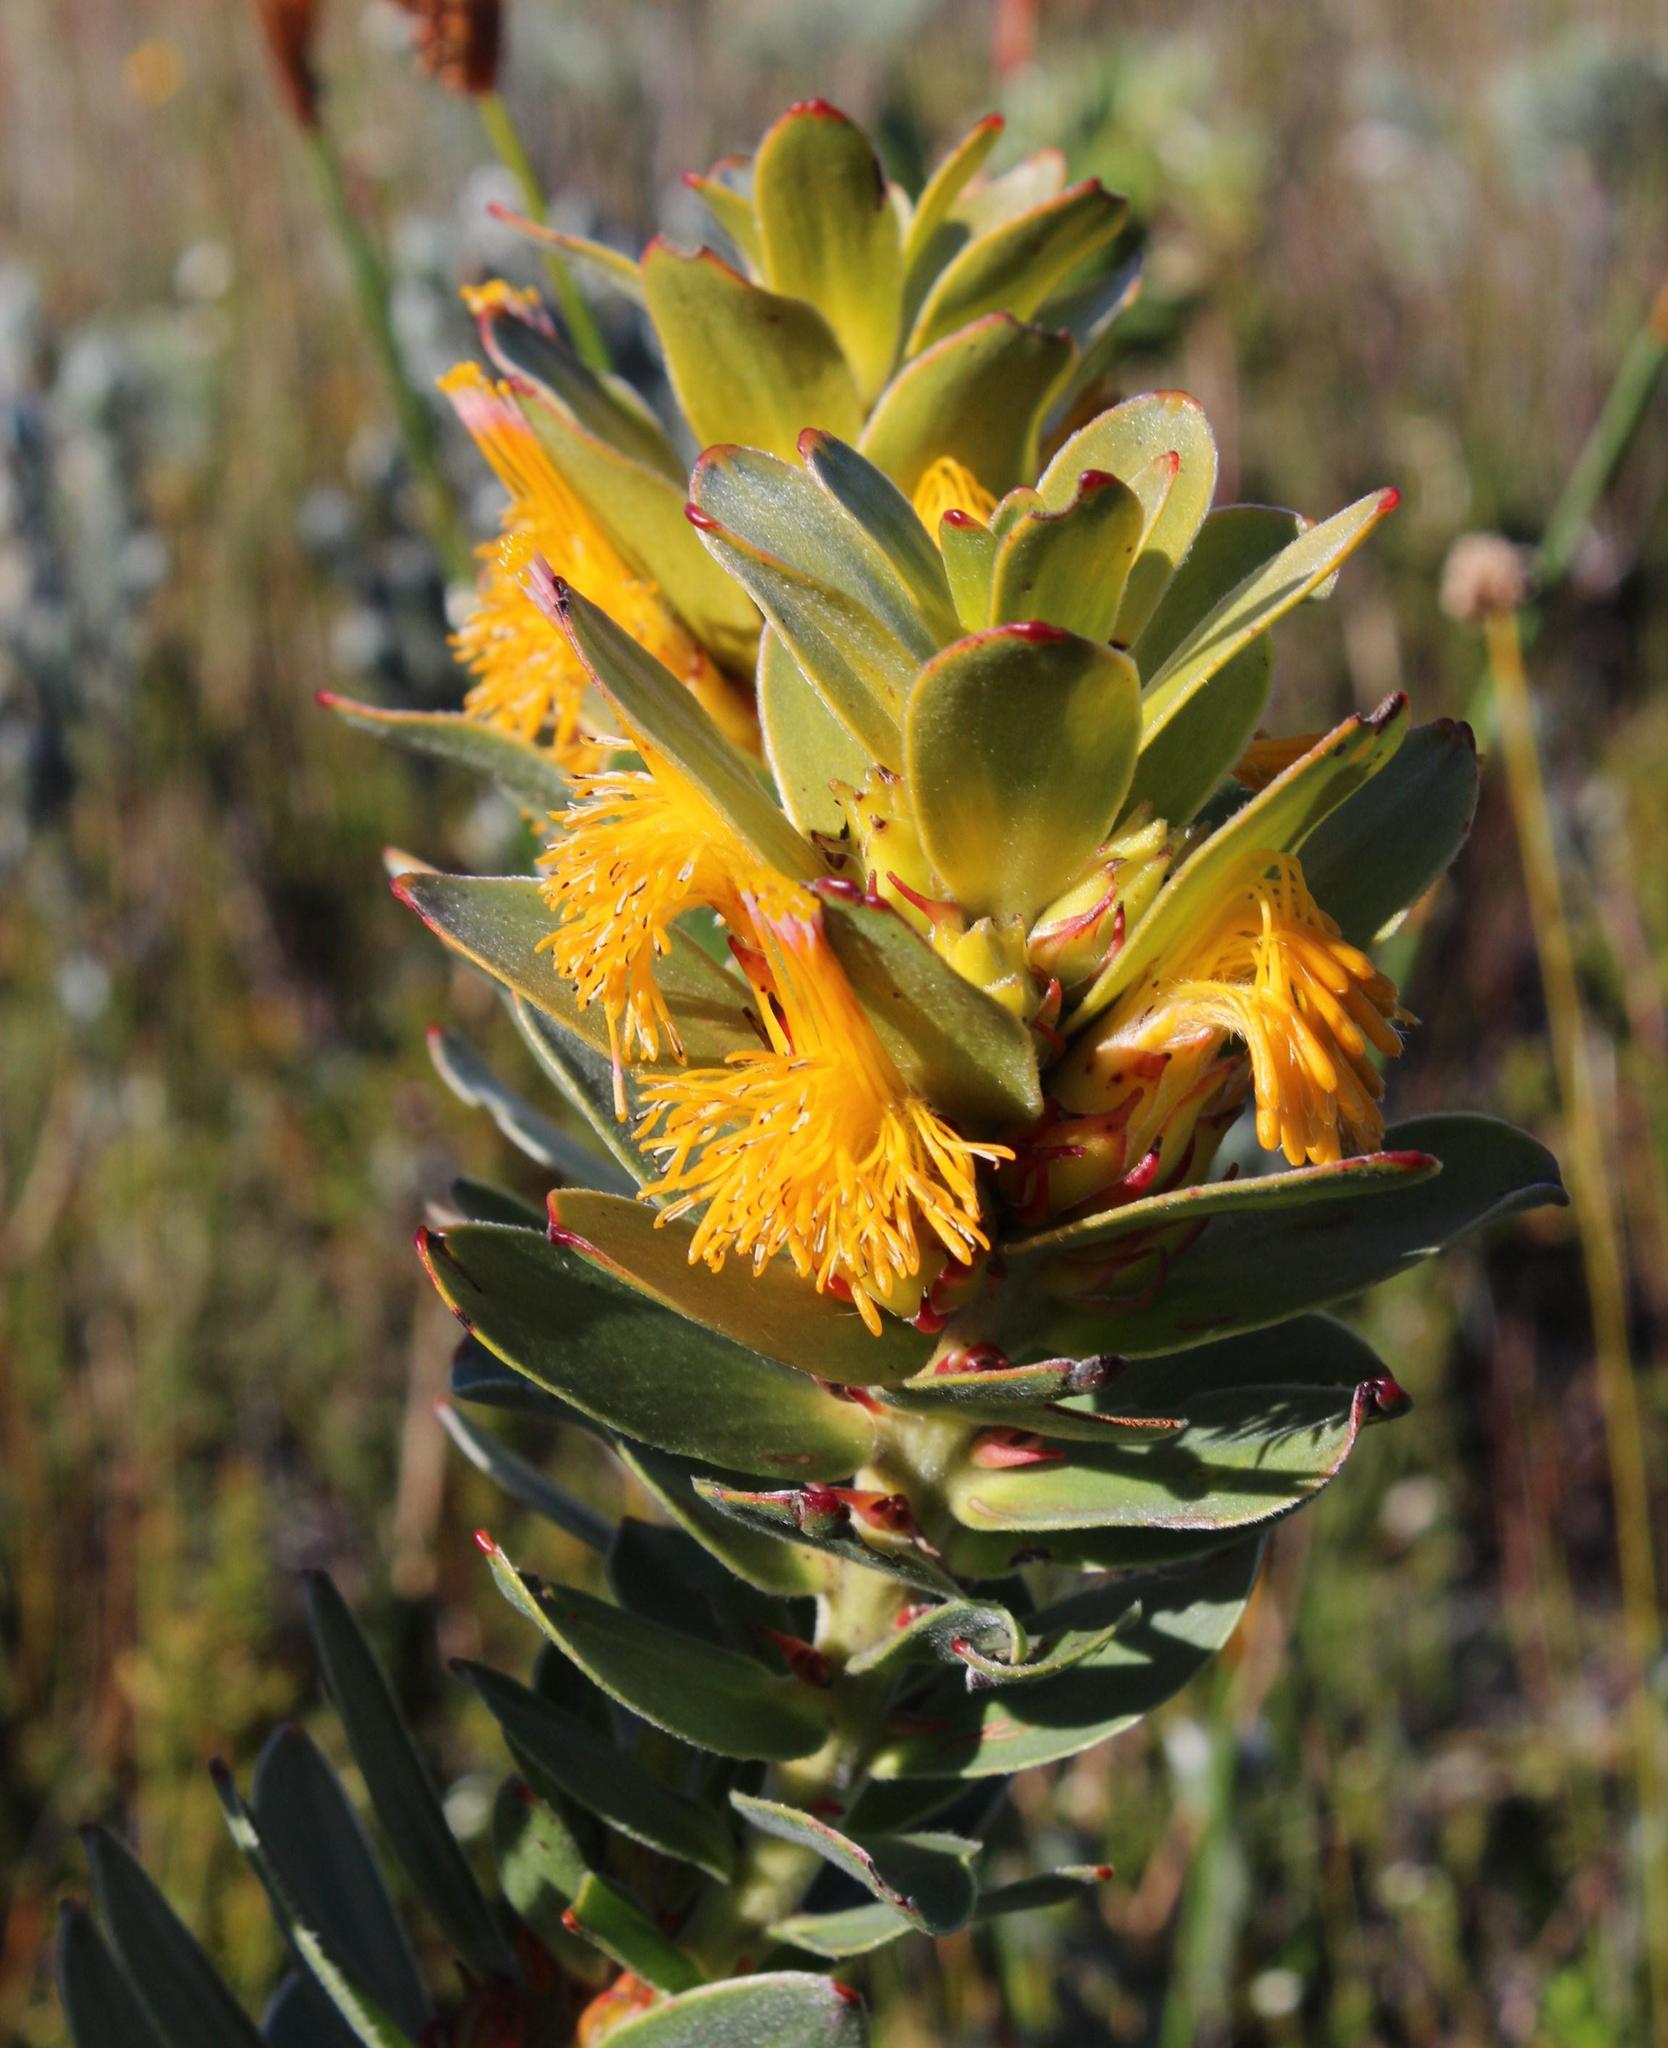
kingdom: Plantae
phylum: Tracheophyta
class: Magnoliopsida
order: Proteales
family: Proteaceae
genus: Mimetes
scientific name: Mimetes saxatilis
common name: Limestone pagoda
